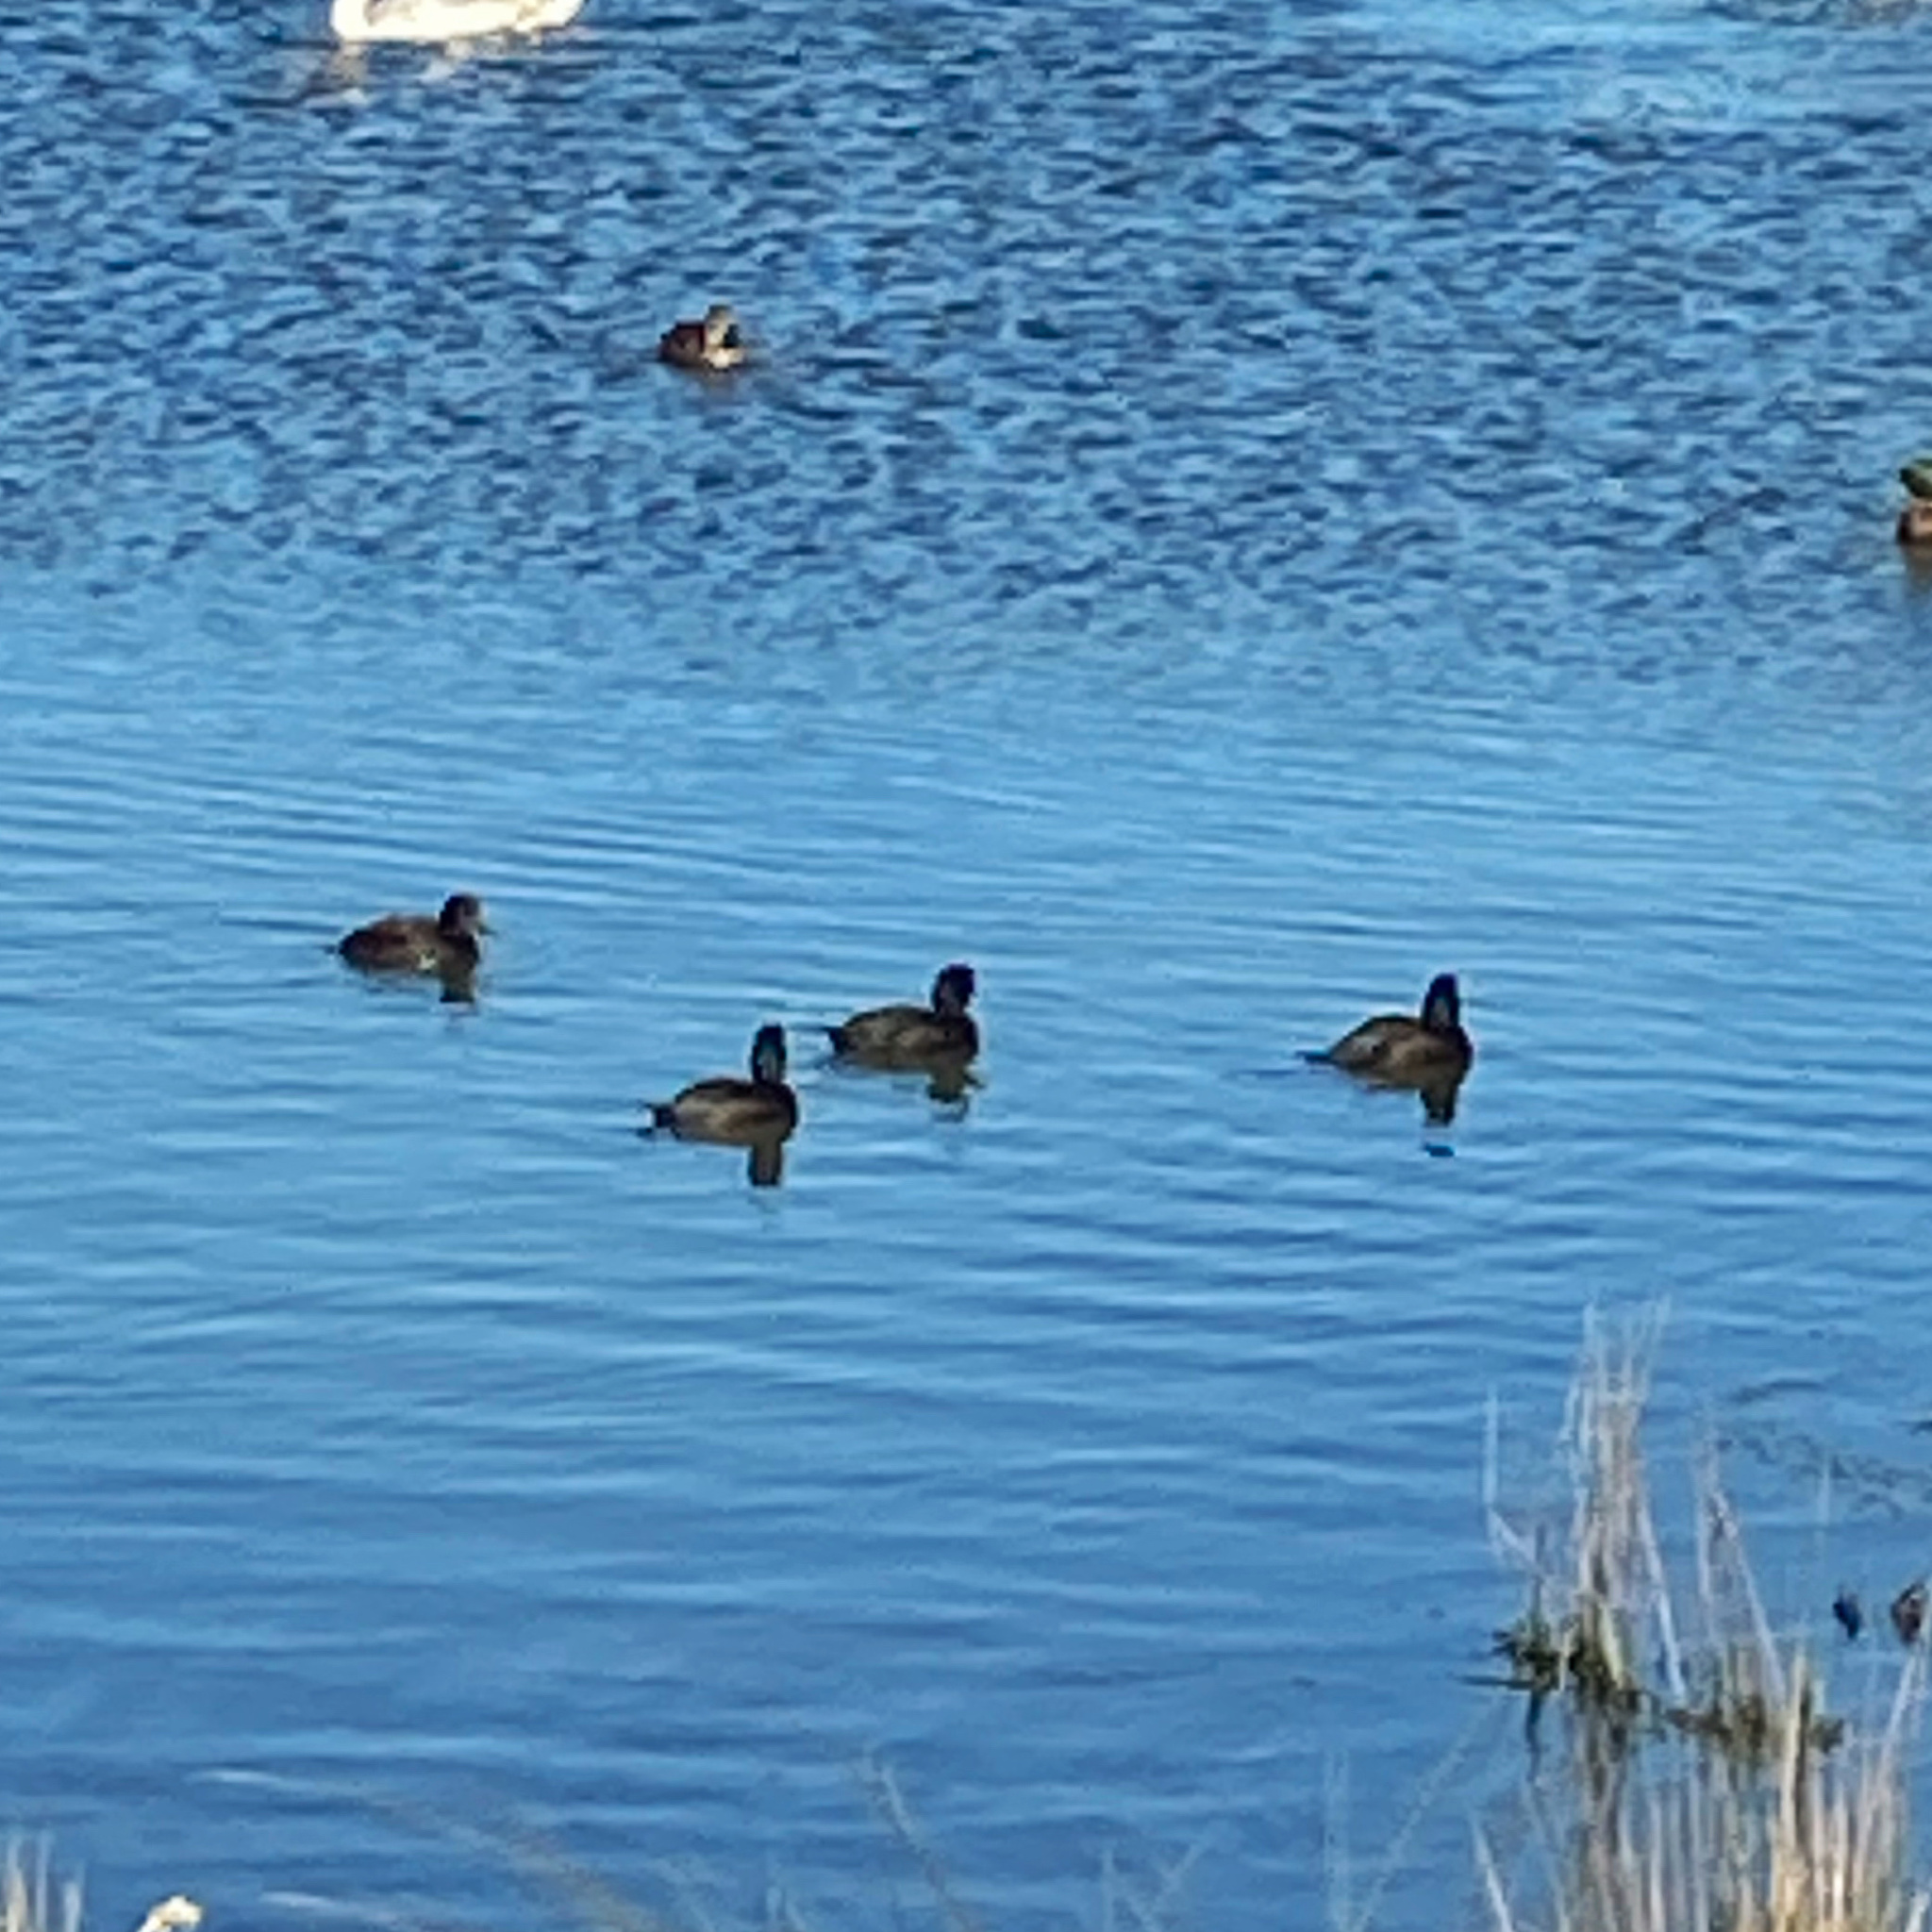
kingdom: Animalia
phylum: Chordata
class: Aves
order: Anseriformes
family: Anatidae
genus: Aythya
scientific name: Aythya novaeseelandiae
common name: New zealand scaup
